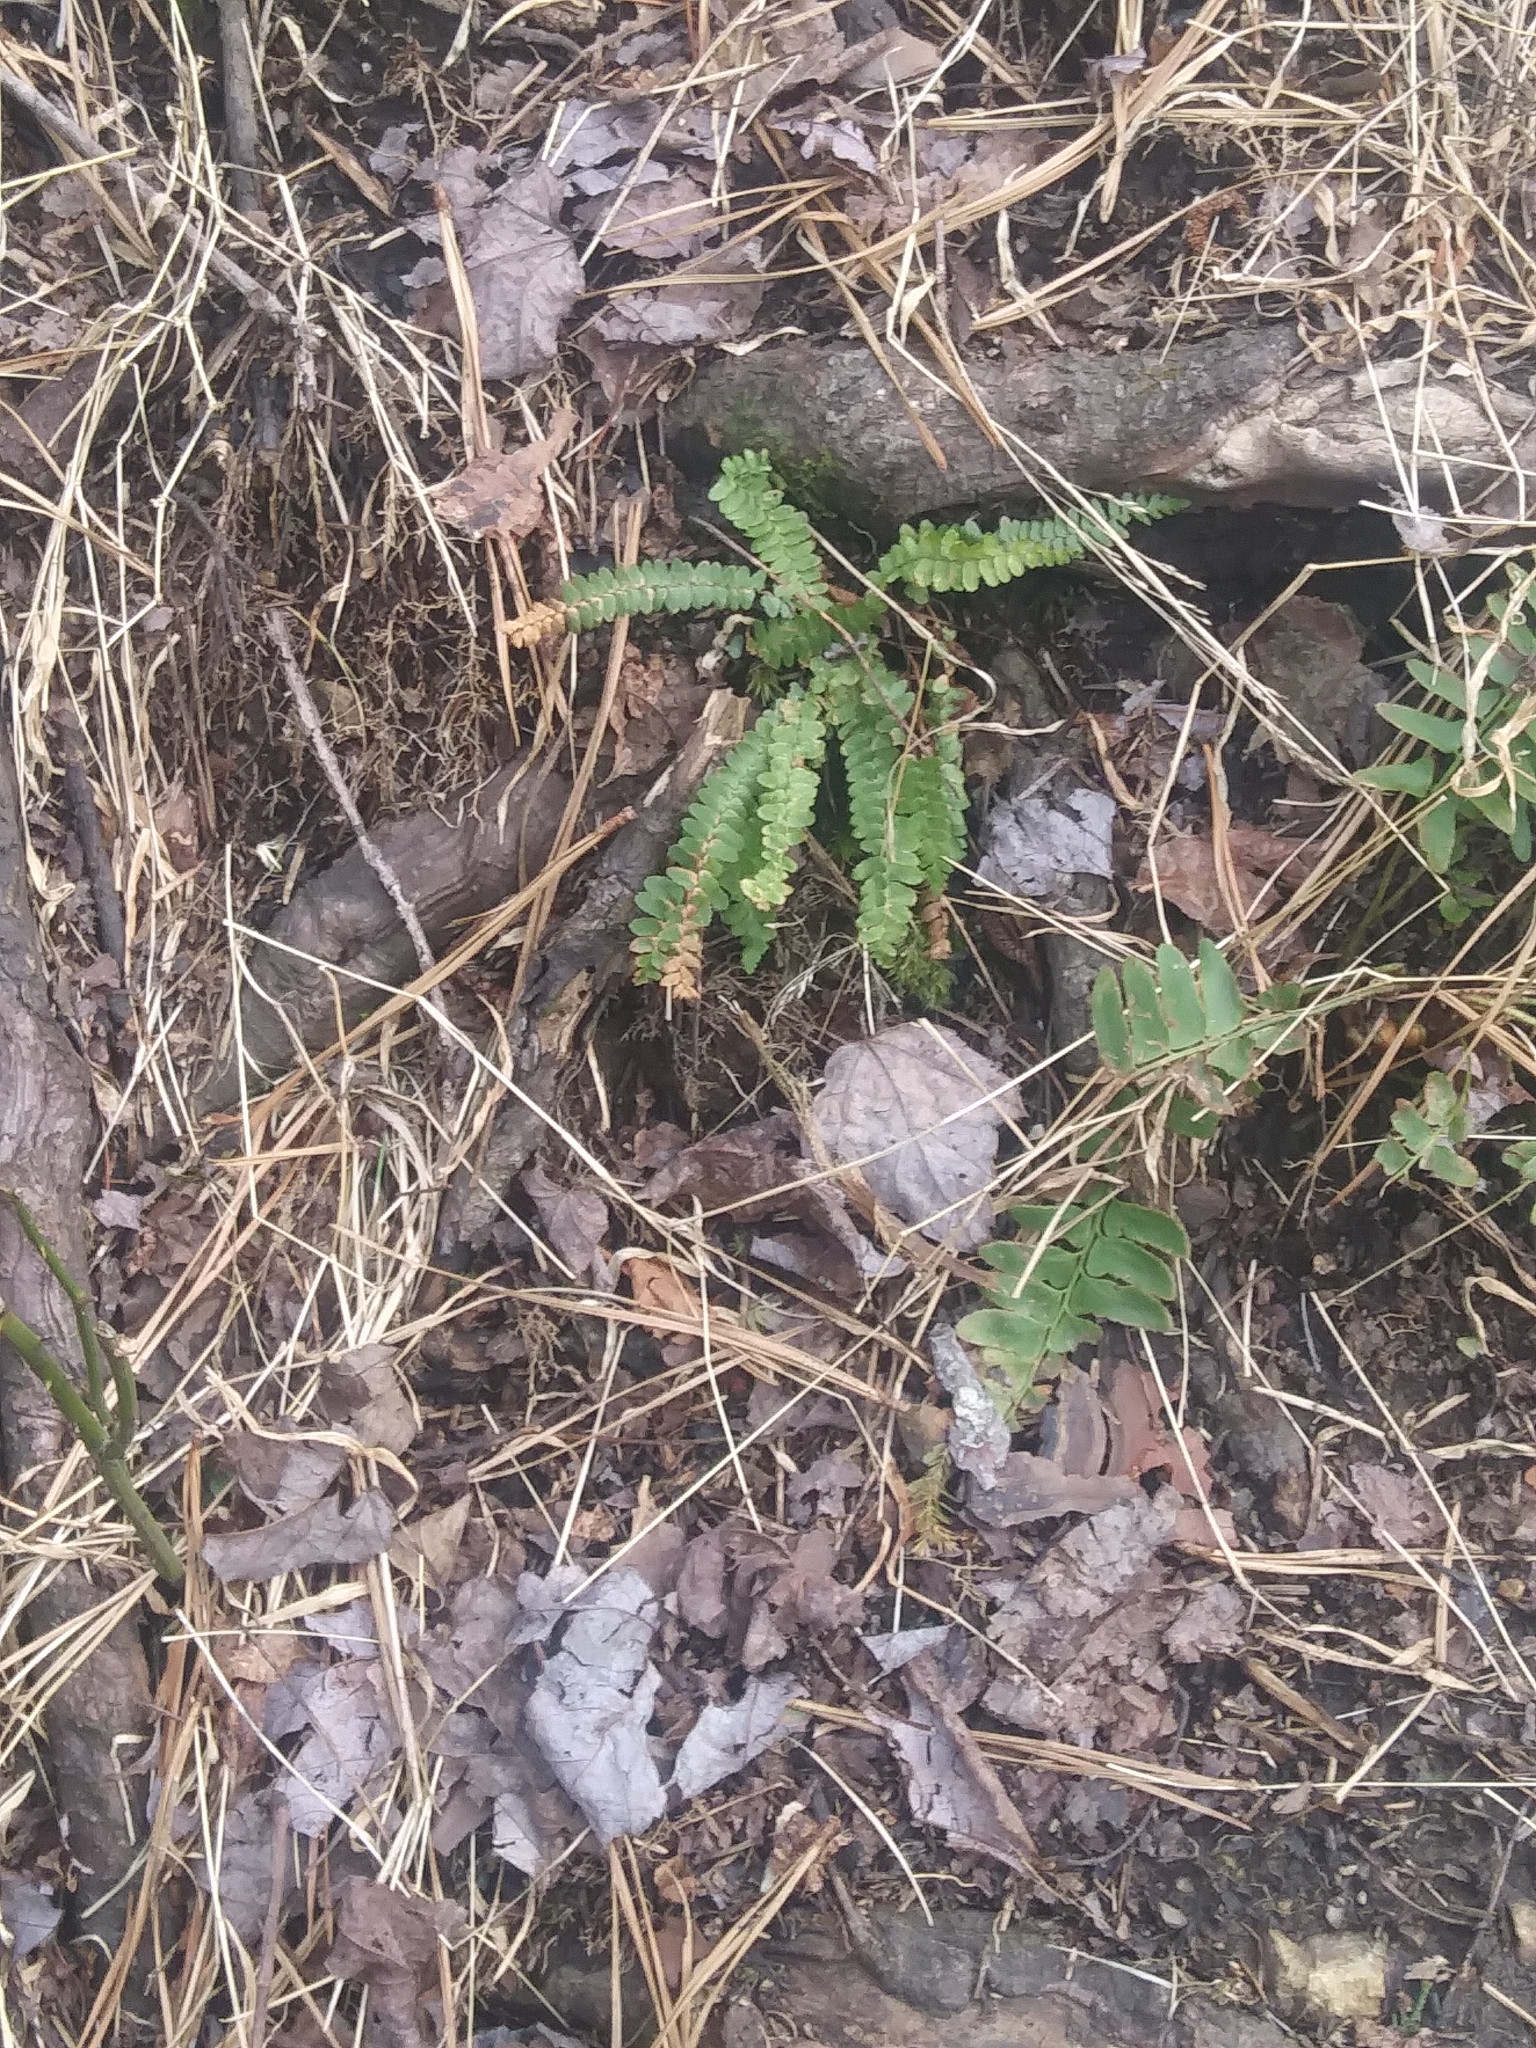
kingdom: Plantae
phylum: Tracheophyta
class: Polypodiopsida
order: Polypodiales
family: Aspleniaceae
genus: Asplenium
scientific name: Asplenium platyneuron
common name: Ebony spleenwort
